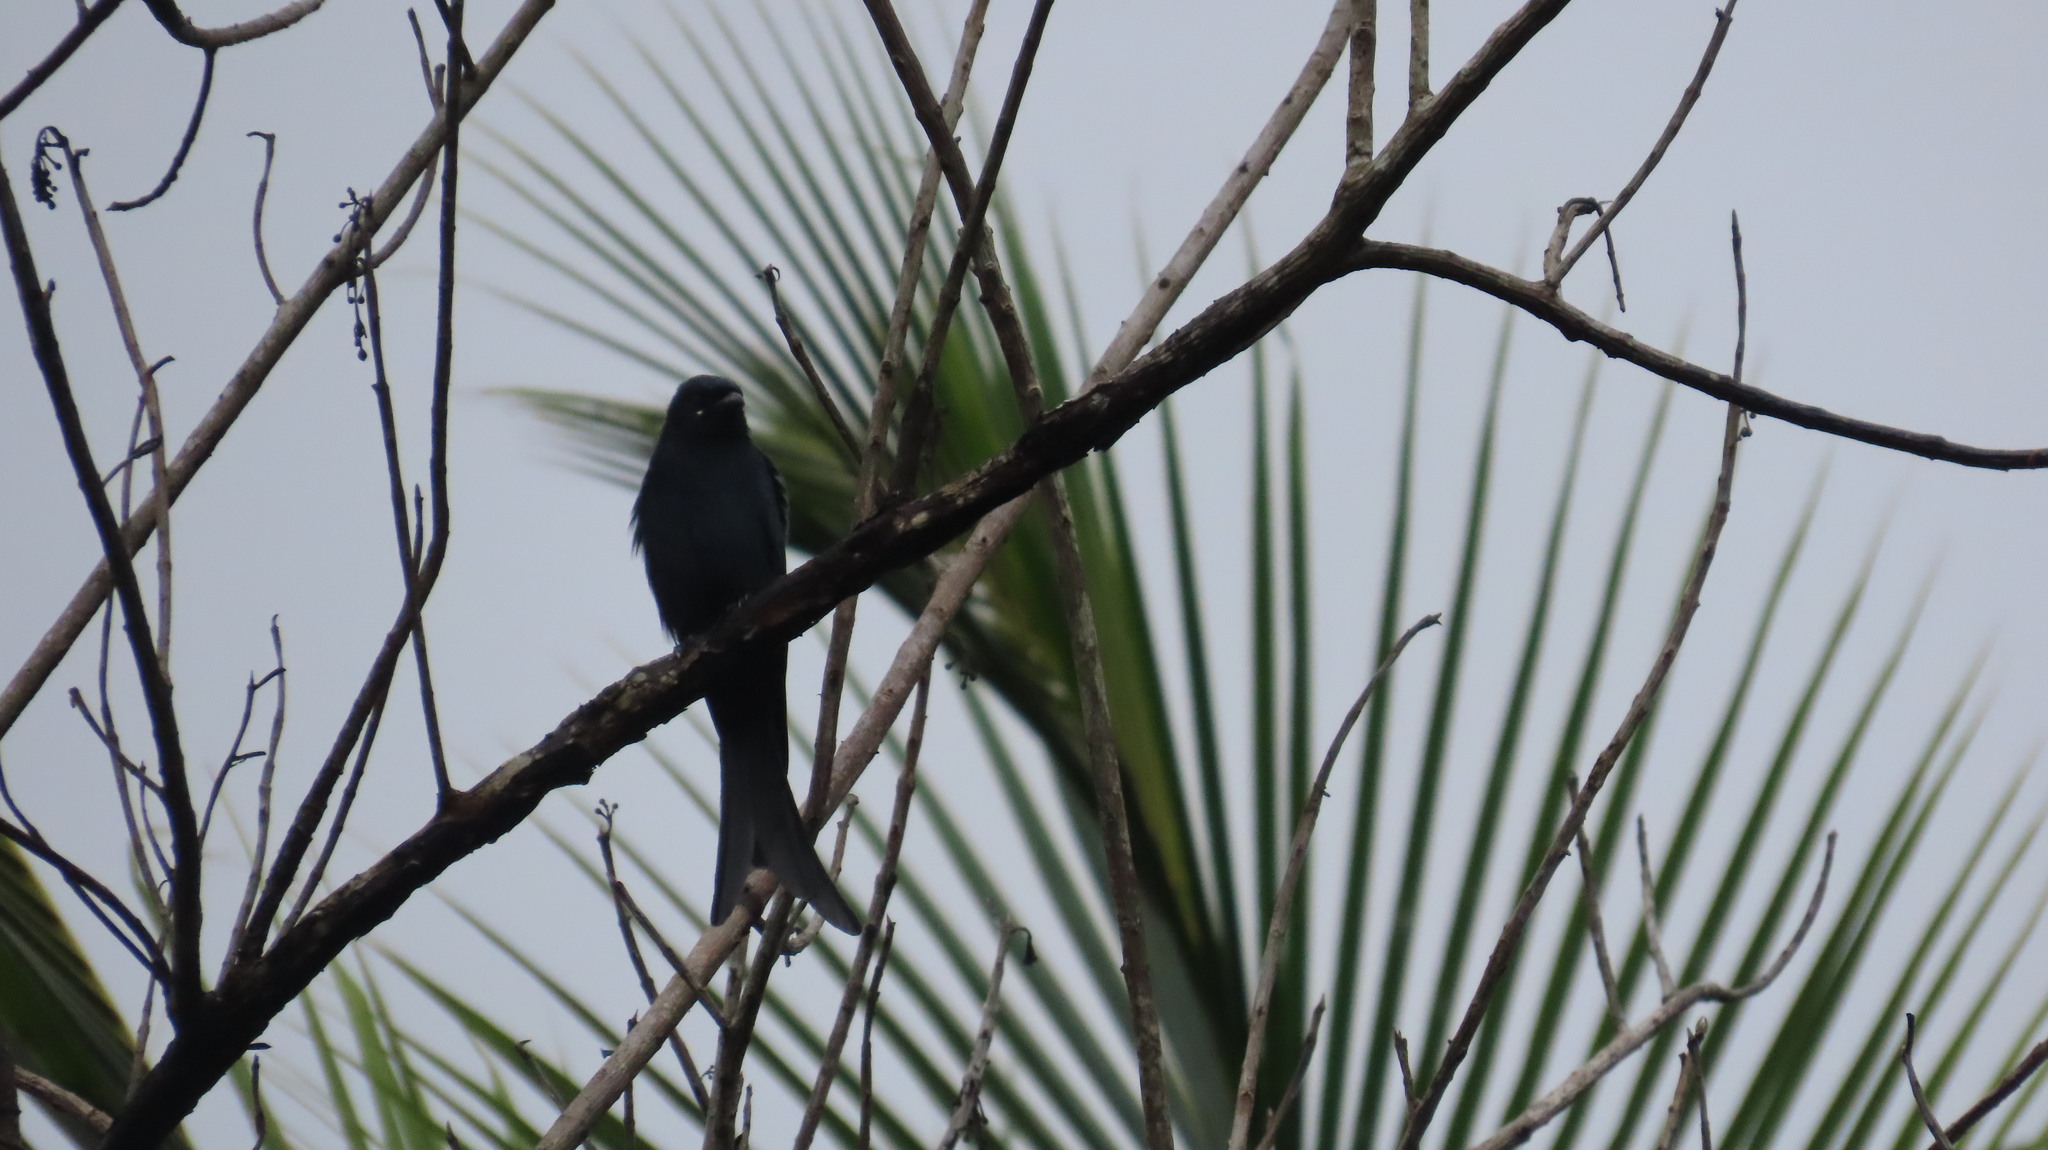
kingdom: Animalia
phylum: Chordata
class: Aves
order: Passeriformes
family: Dicruridae
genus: Dicrurus
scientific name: Dicrurus macrocercus
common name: Black drongo
